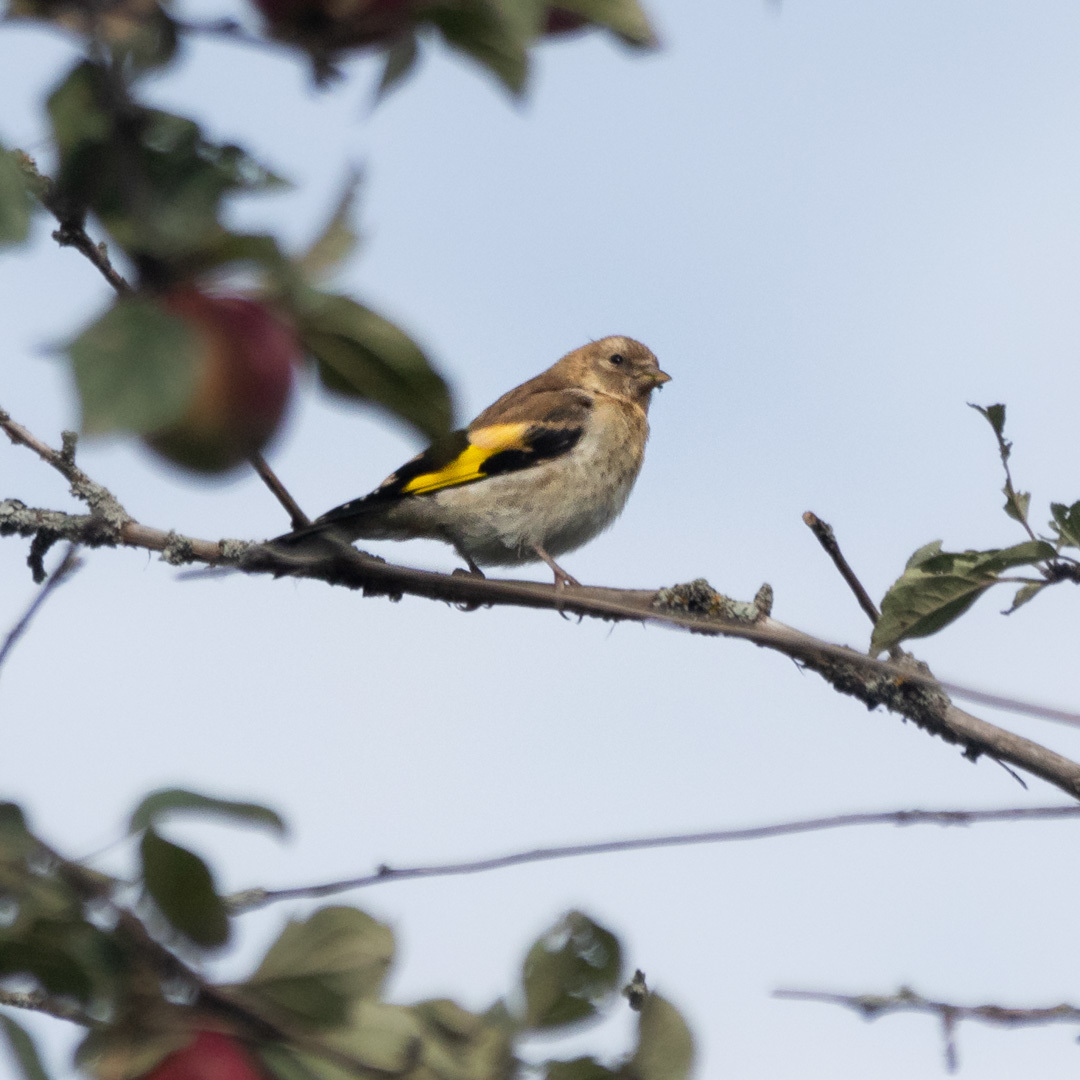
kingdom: Animalia
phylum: Chordata
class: Aves
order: Passeriformes
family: Fringillidae
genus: Carduelis
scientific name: Carduelis carduelis
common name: European goldfinch
